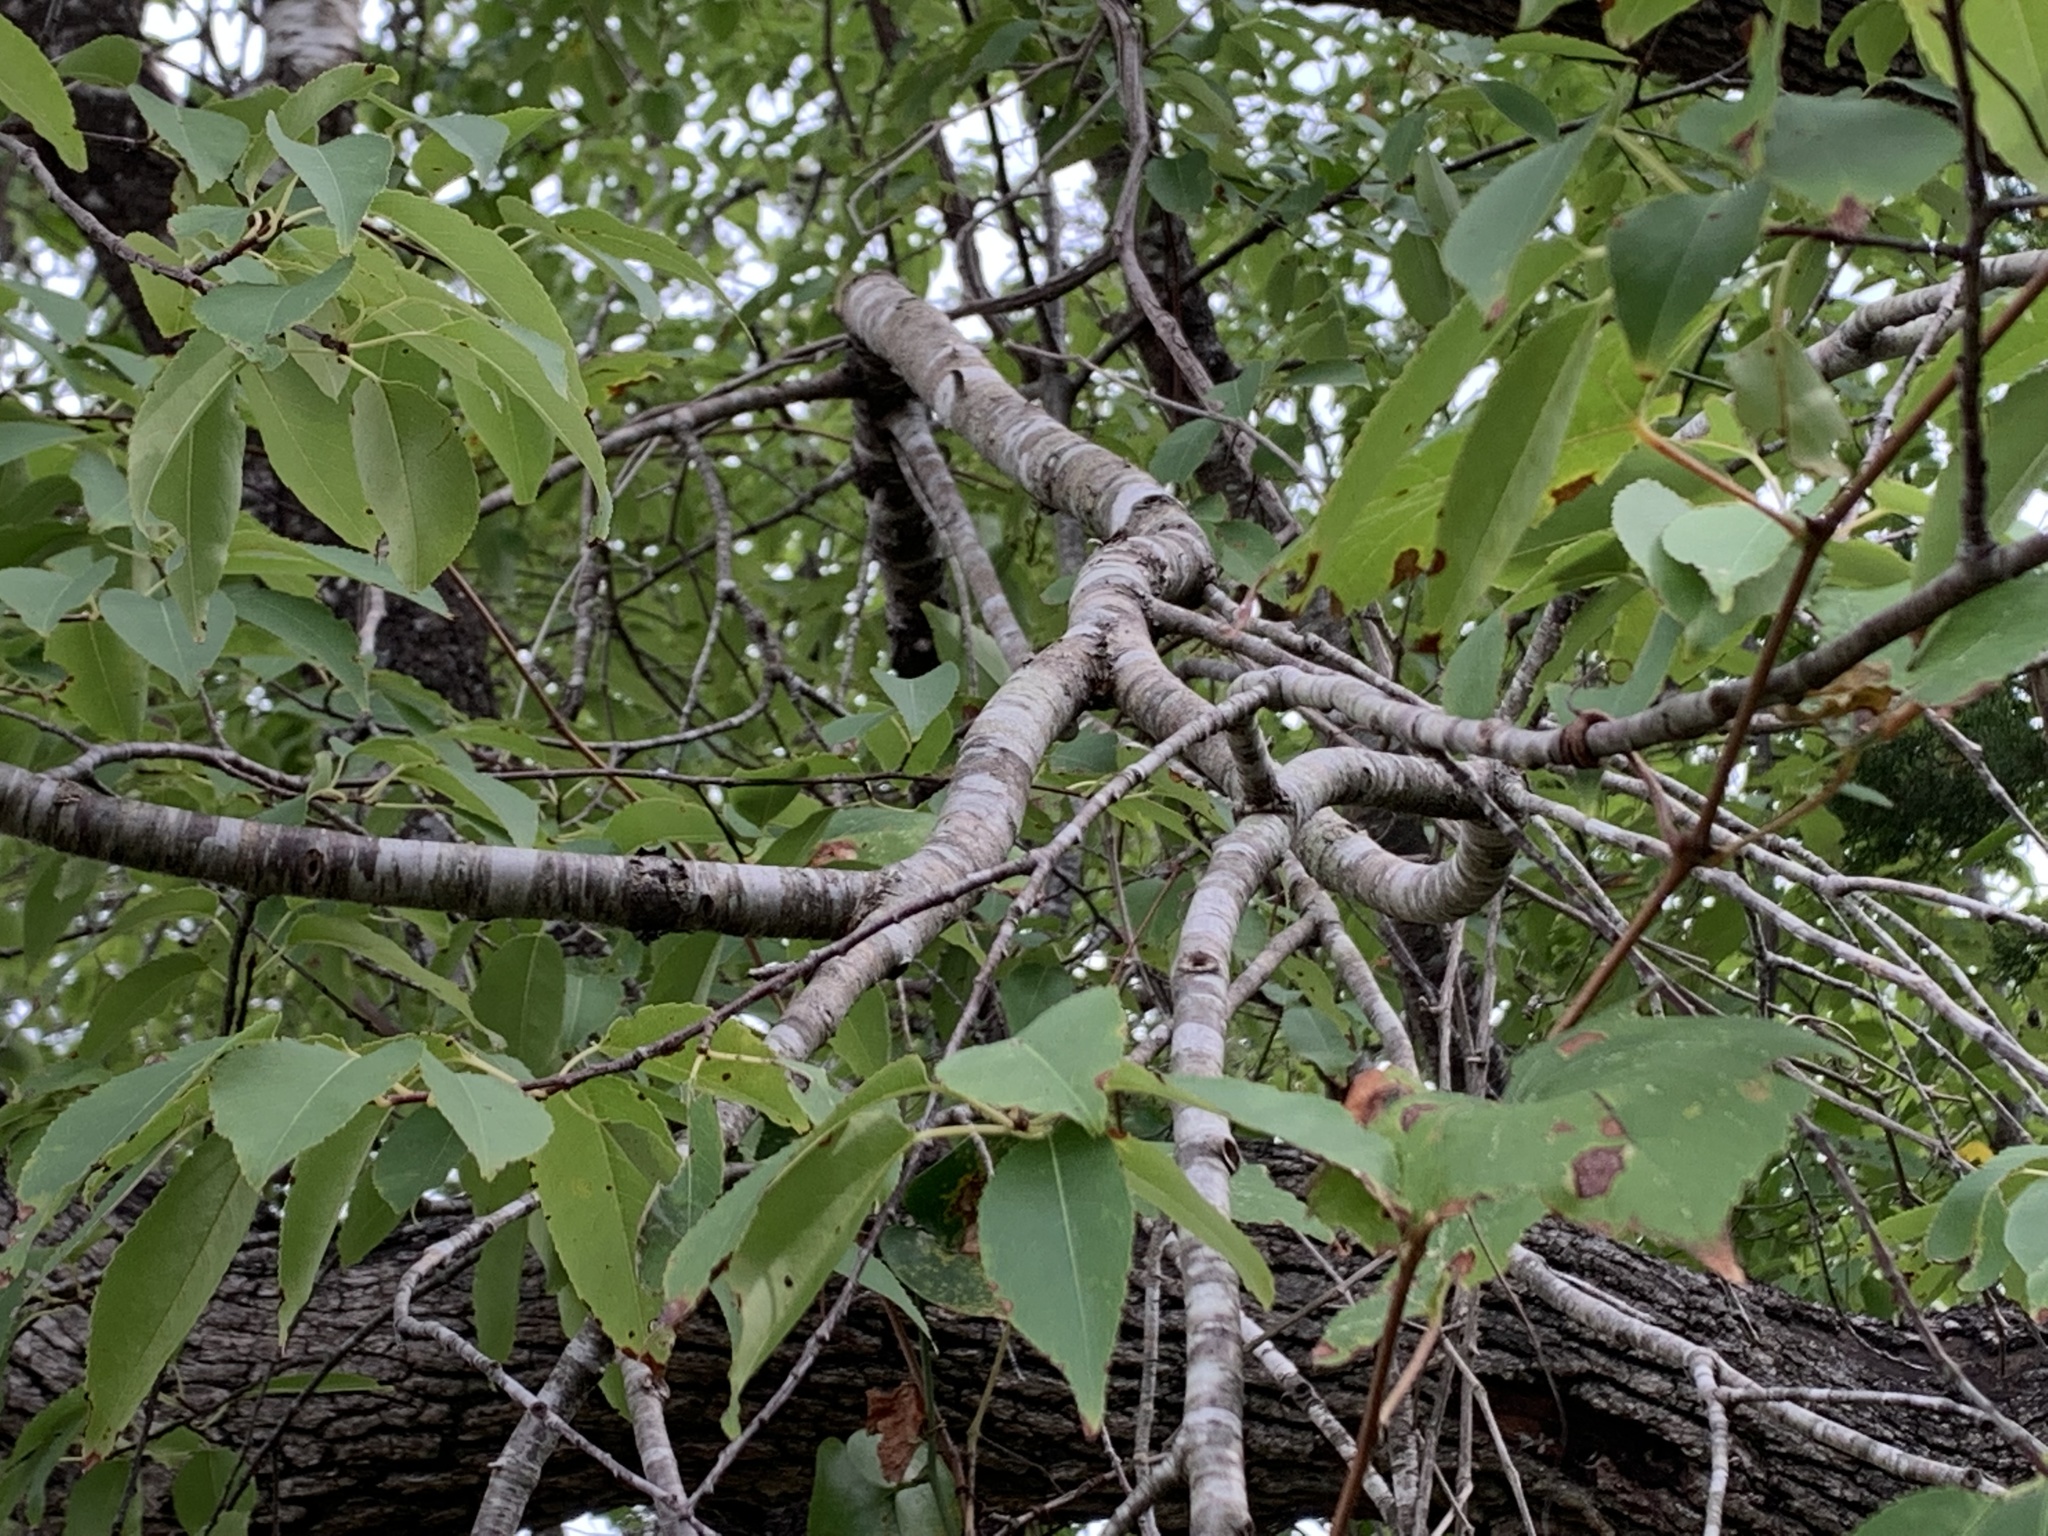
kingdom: Plantae
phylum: Tracheophyta
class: Magnoliopsida
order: Rosales
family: Rosaceae
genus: Prunus
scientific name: Prunus serotina
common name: Black cherry
